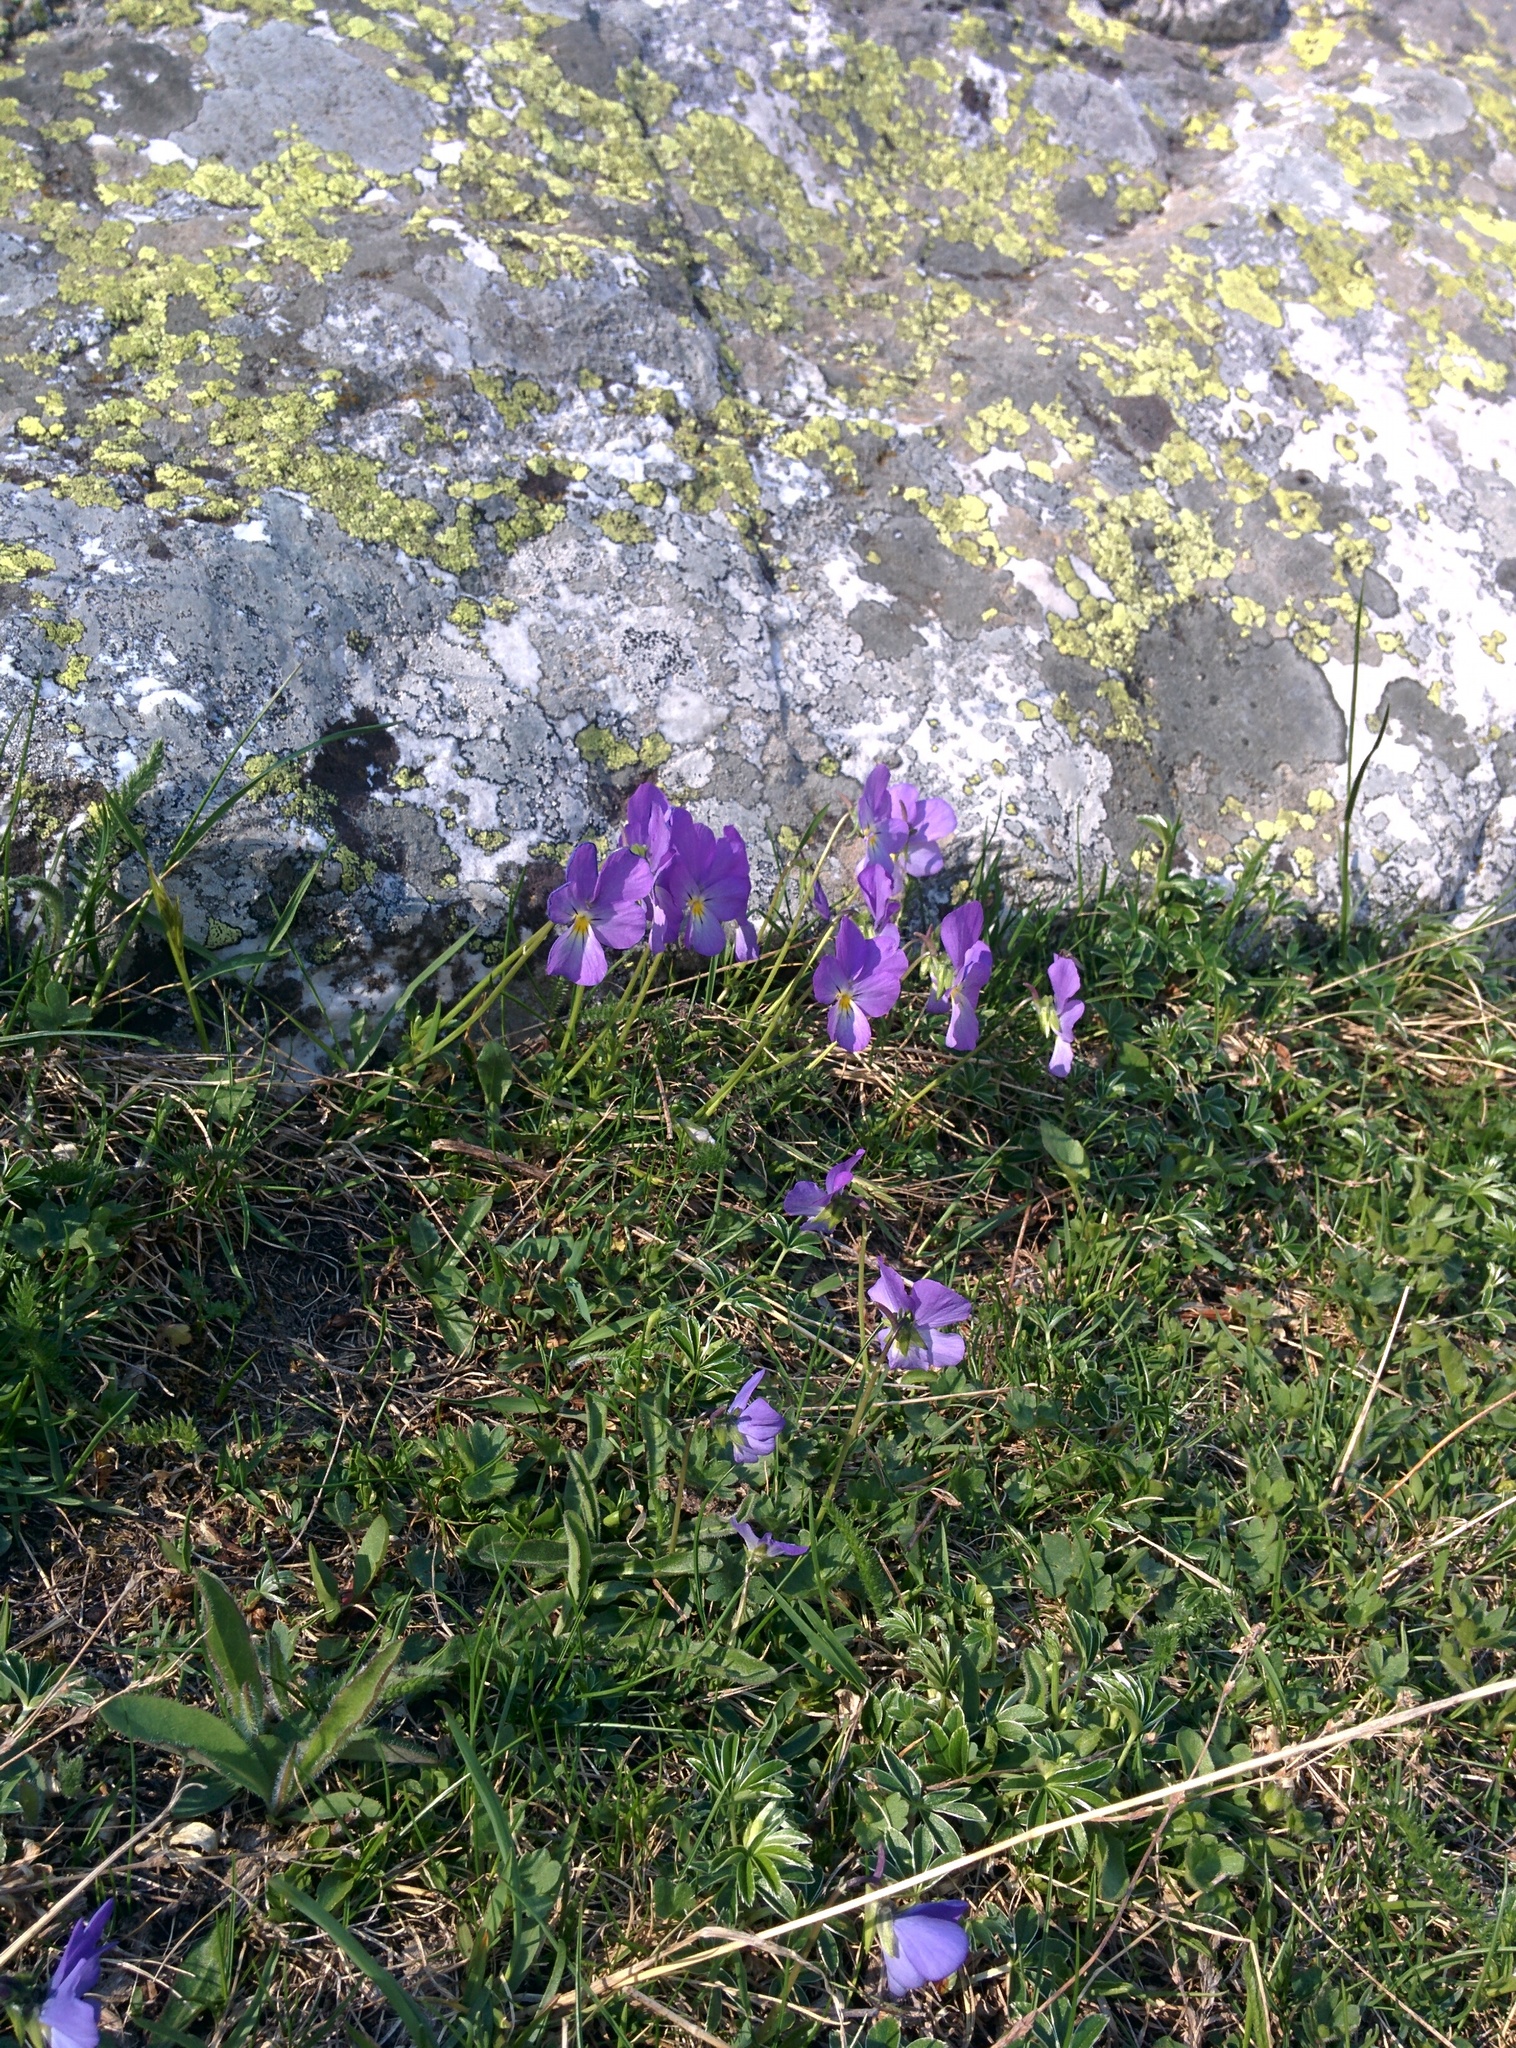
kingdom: Plantae
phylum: Tracheophyta
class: Magnoliopsida
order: Malpighiales
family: Violaceae
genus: Viola
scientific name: Viola calcarata
